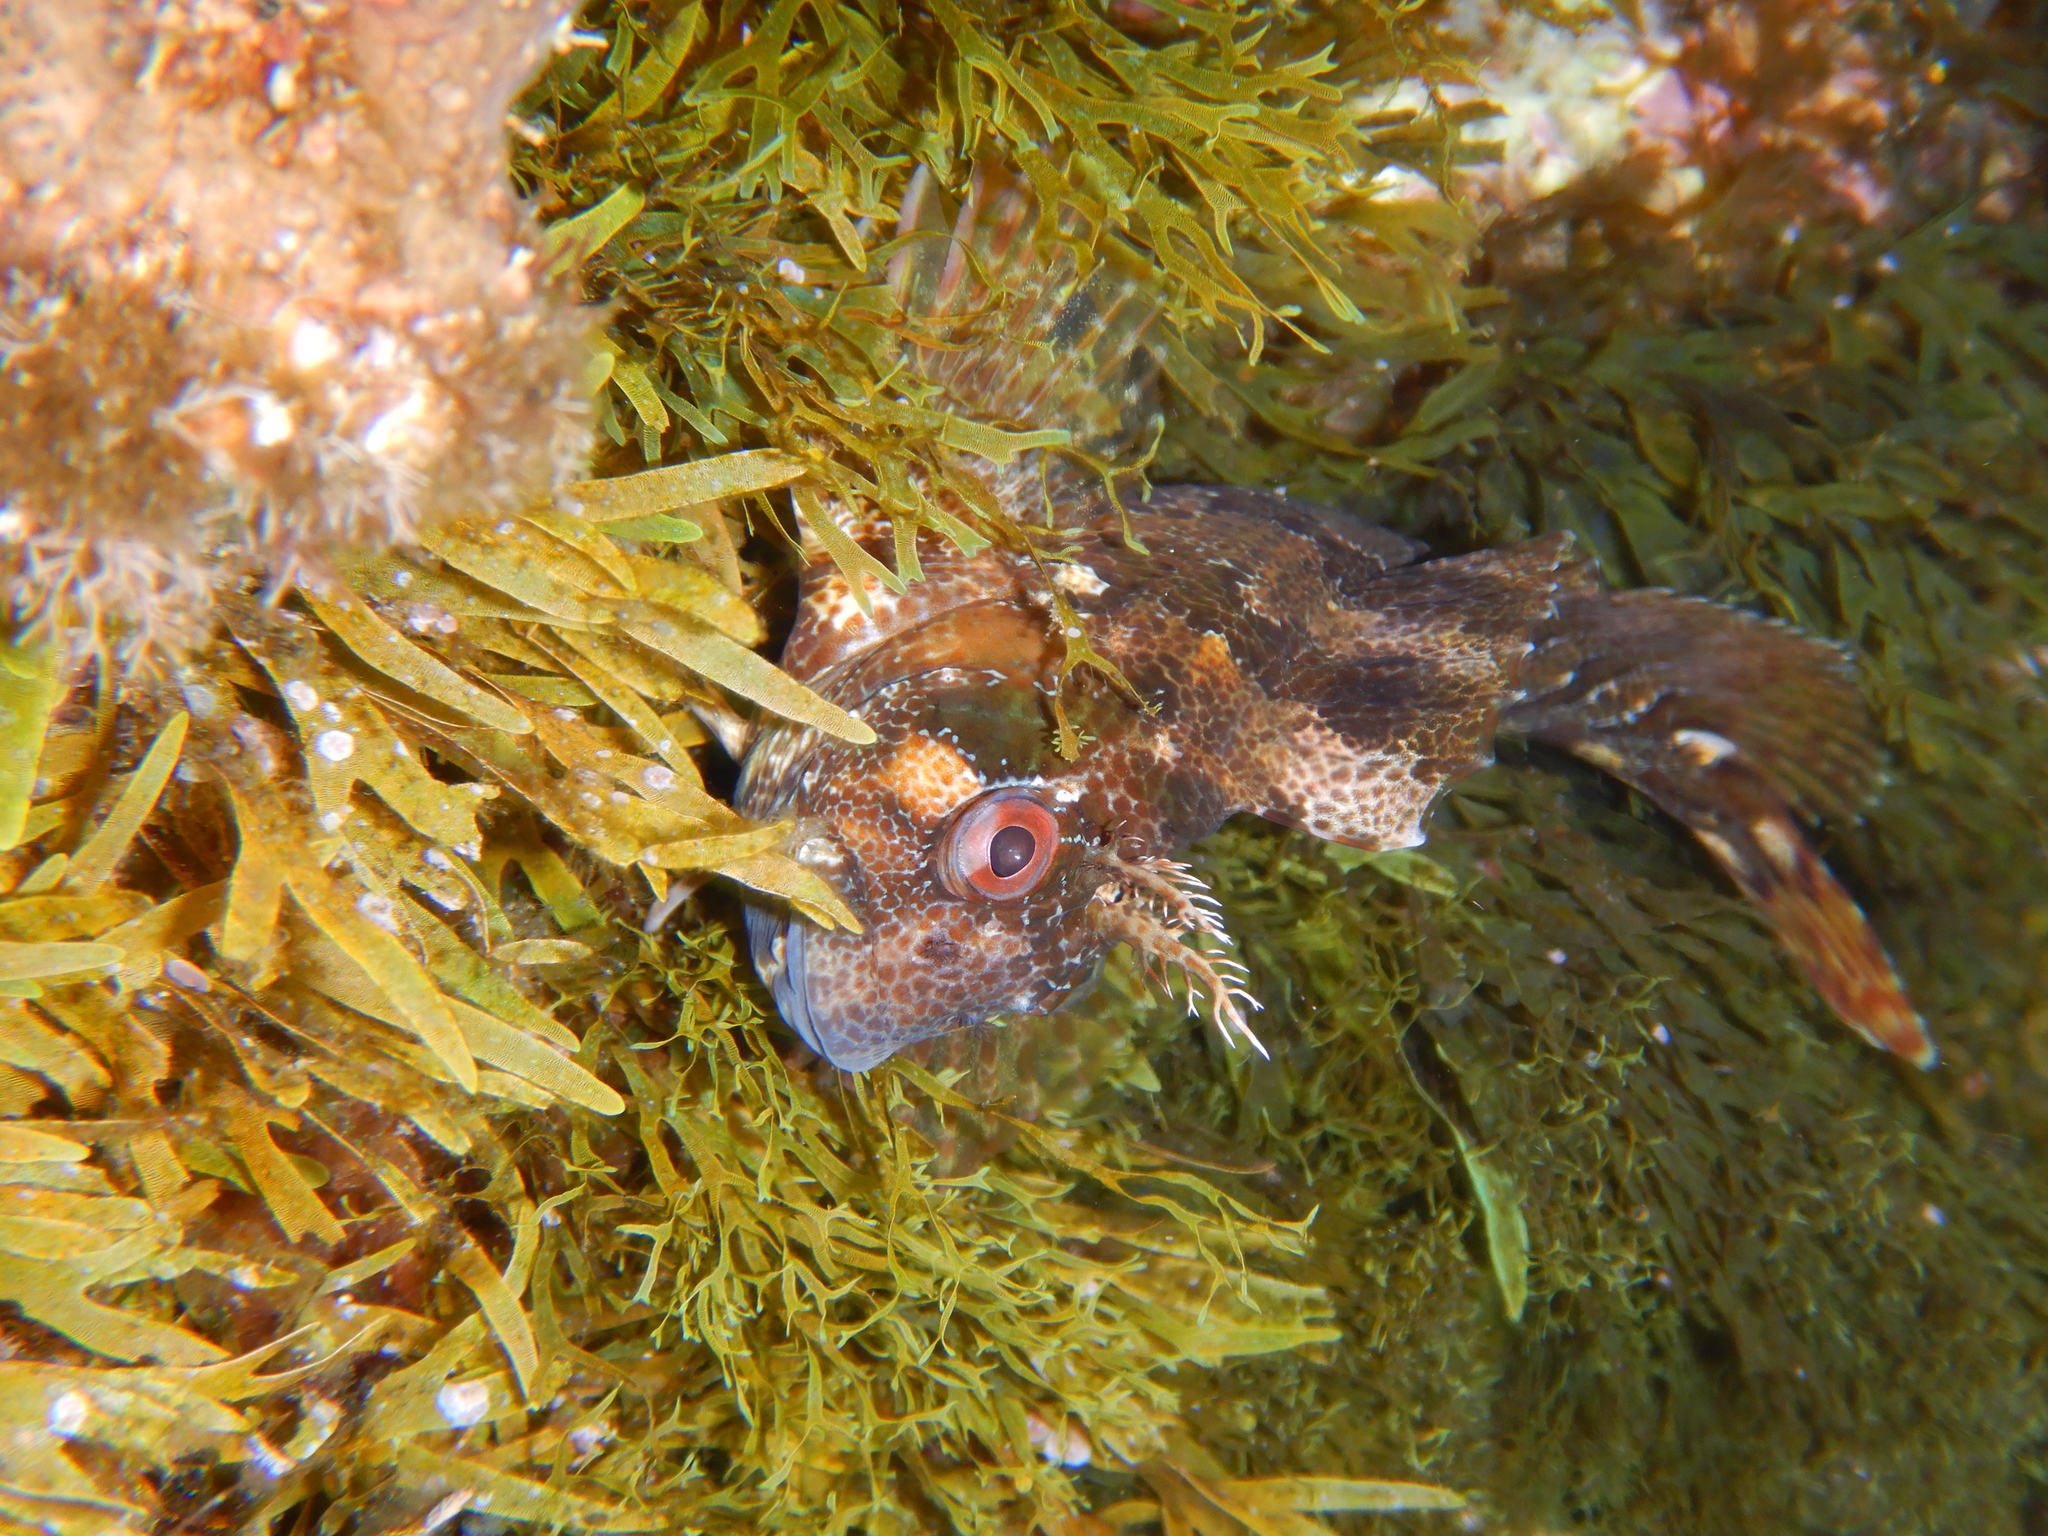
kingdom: Animalia
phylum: Chordata
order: Perciformes
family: Blenniidae
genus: Parablennius
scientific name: Parablennius gattorugine
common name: Tompot blenny
